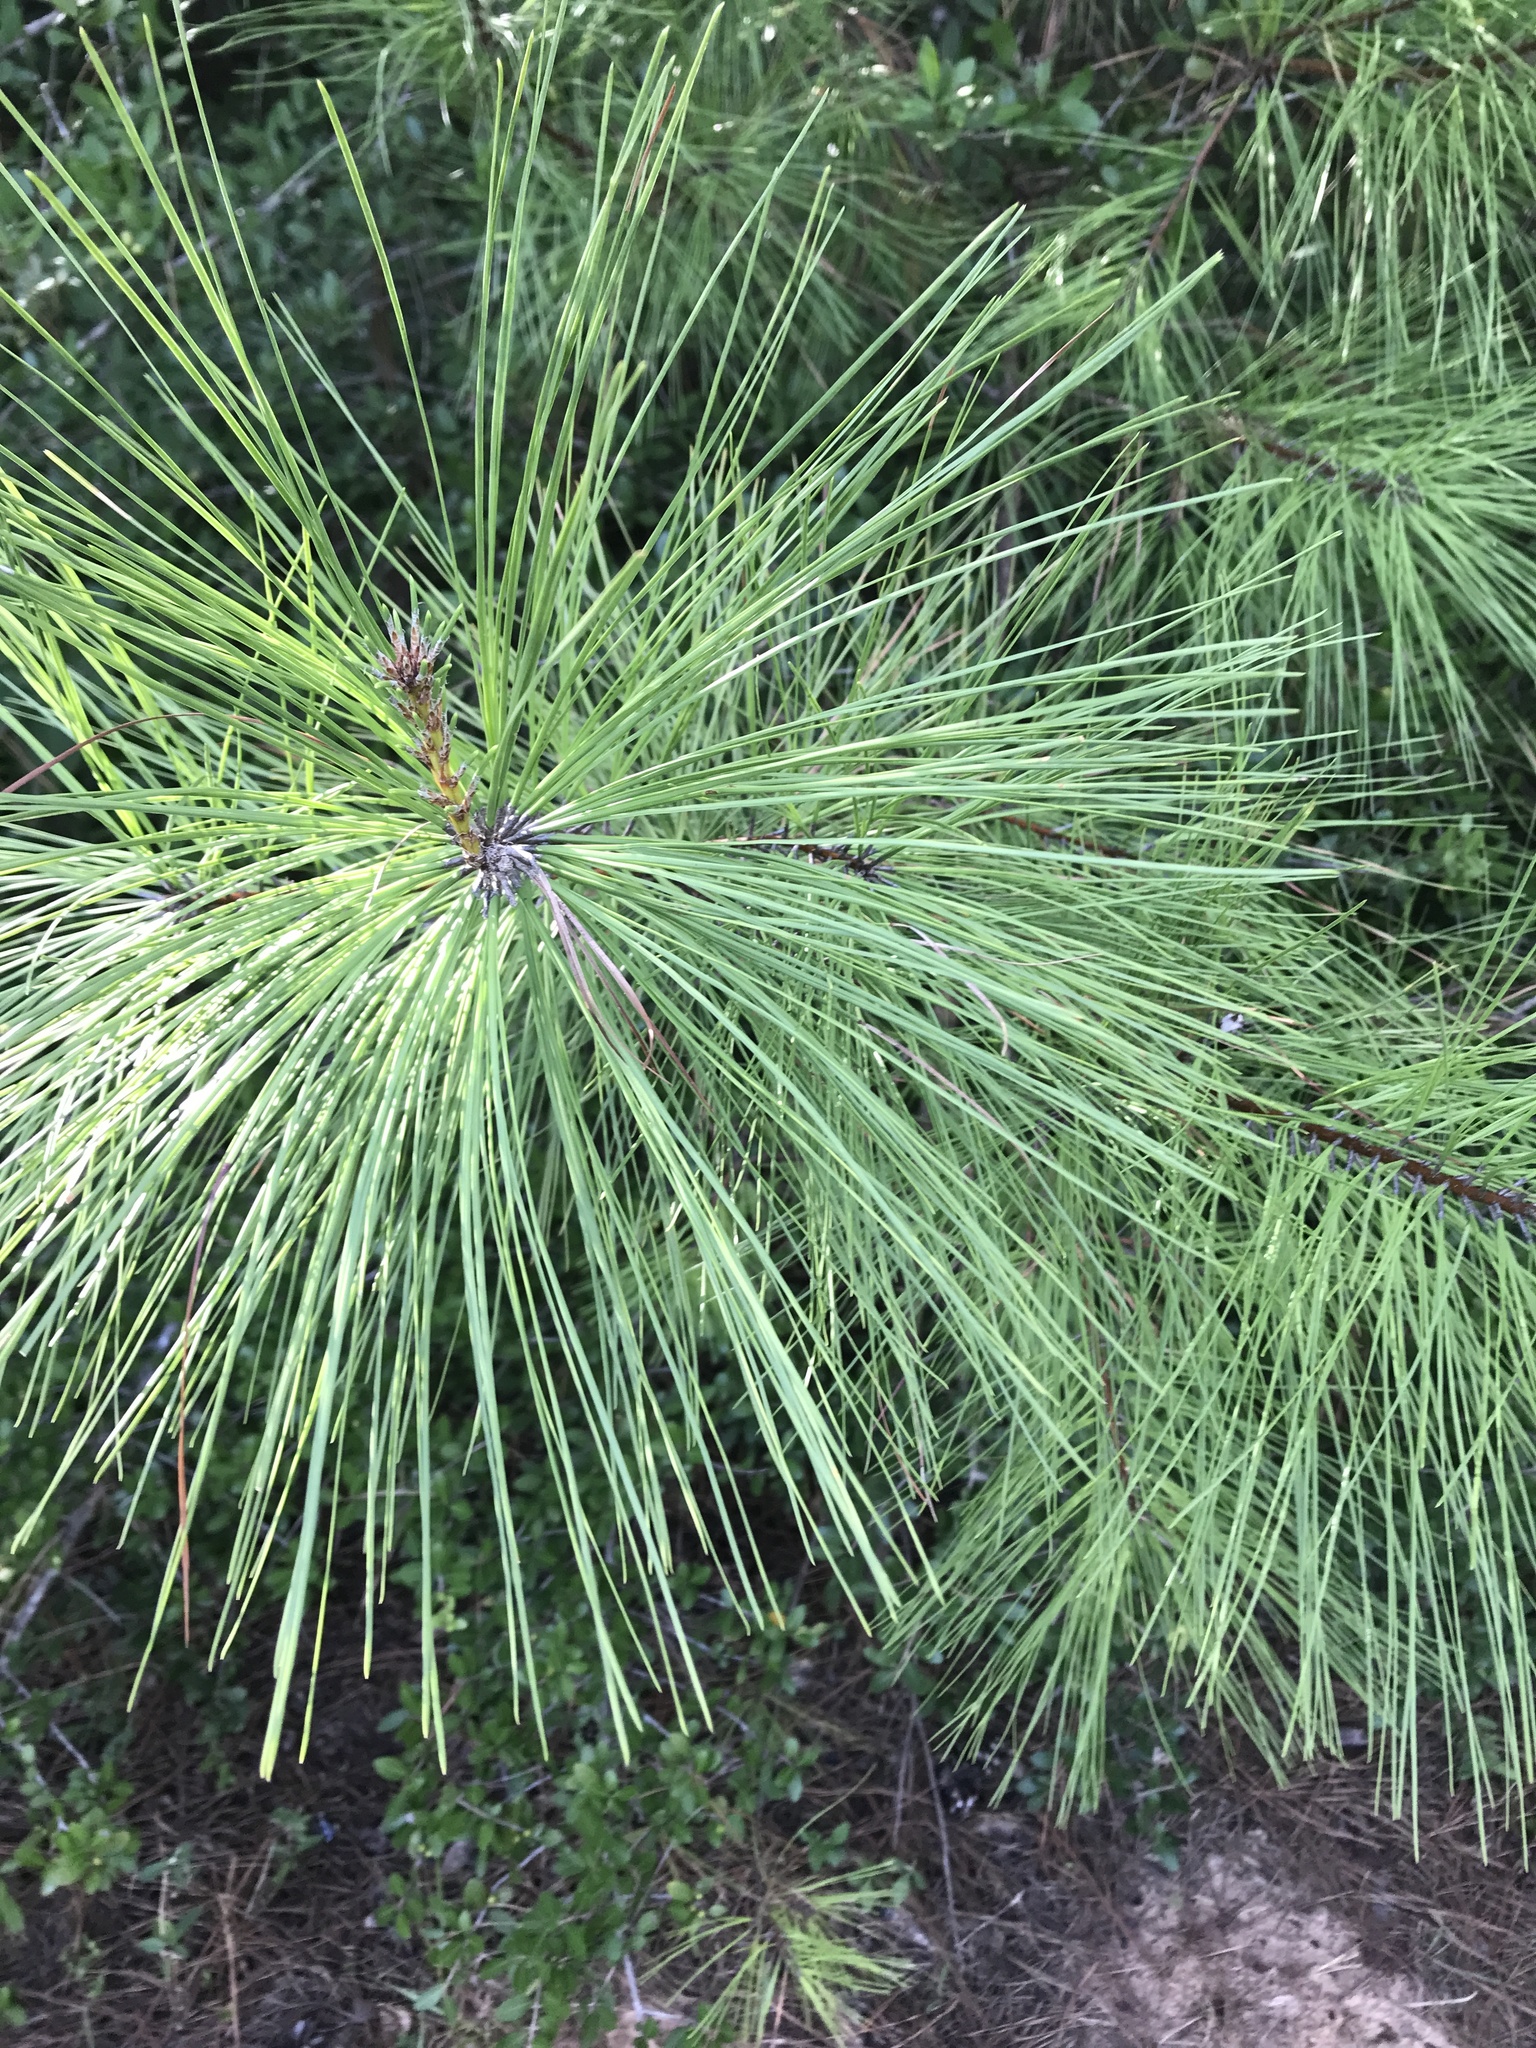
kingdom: Plantae
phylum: Tracheophyta
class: Pinopsida
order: Pinales
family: Pinaceae
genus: Pinus
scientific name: Pinus taeda
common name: Loblolly pine
